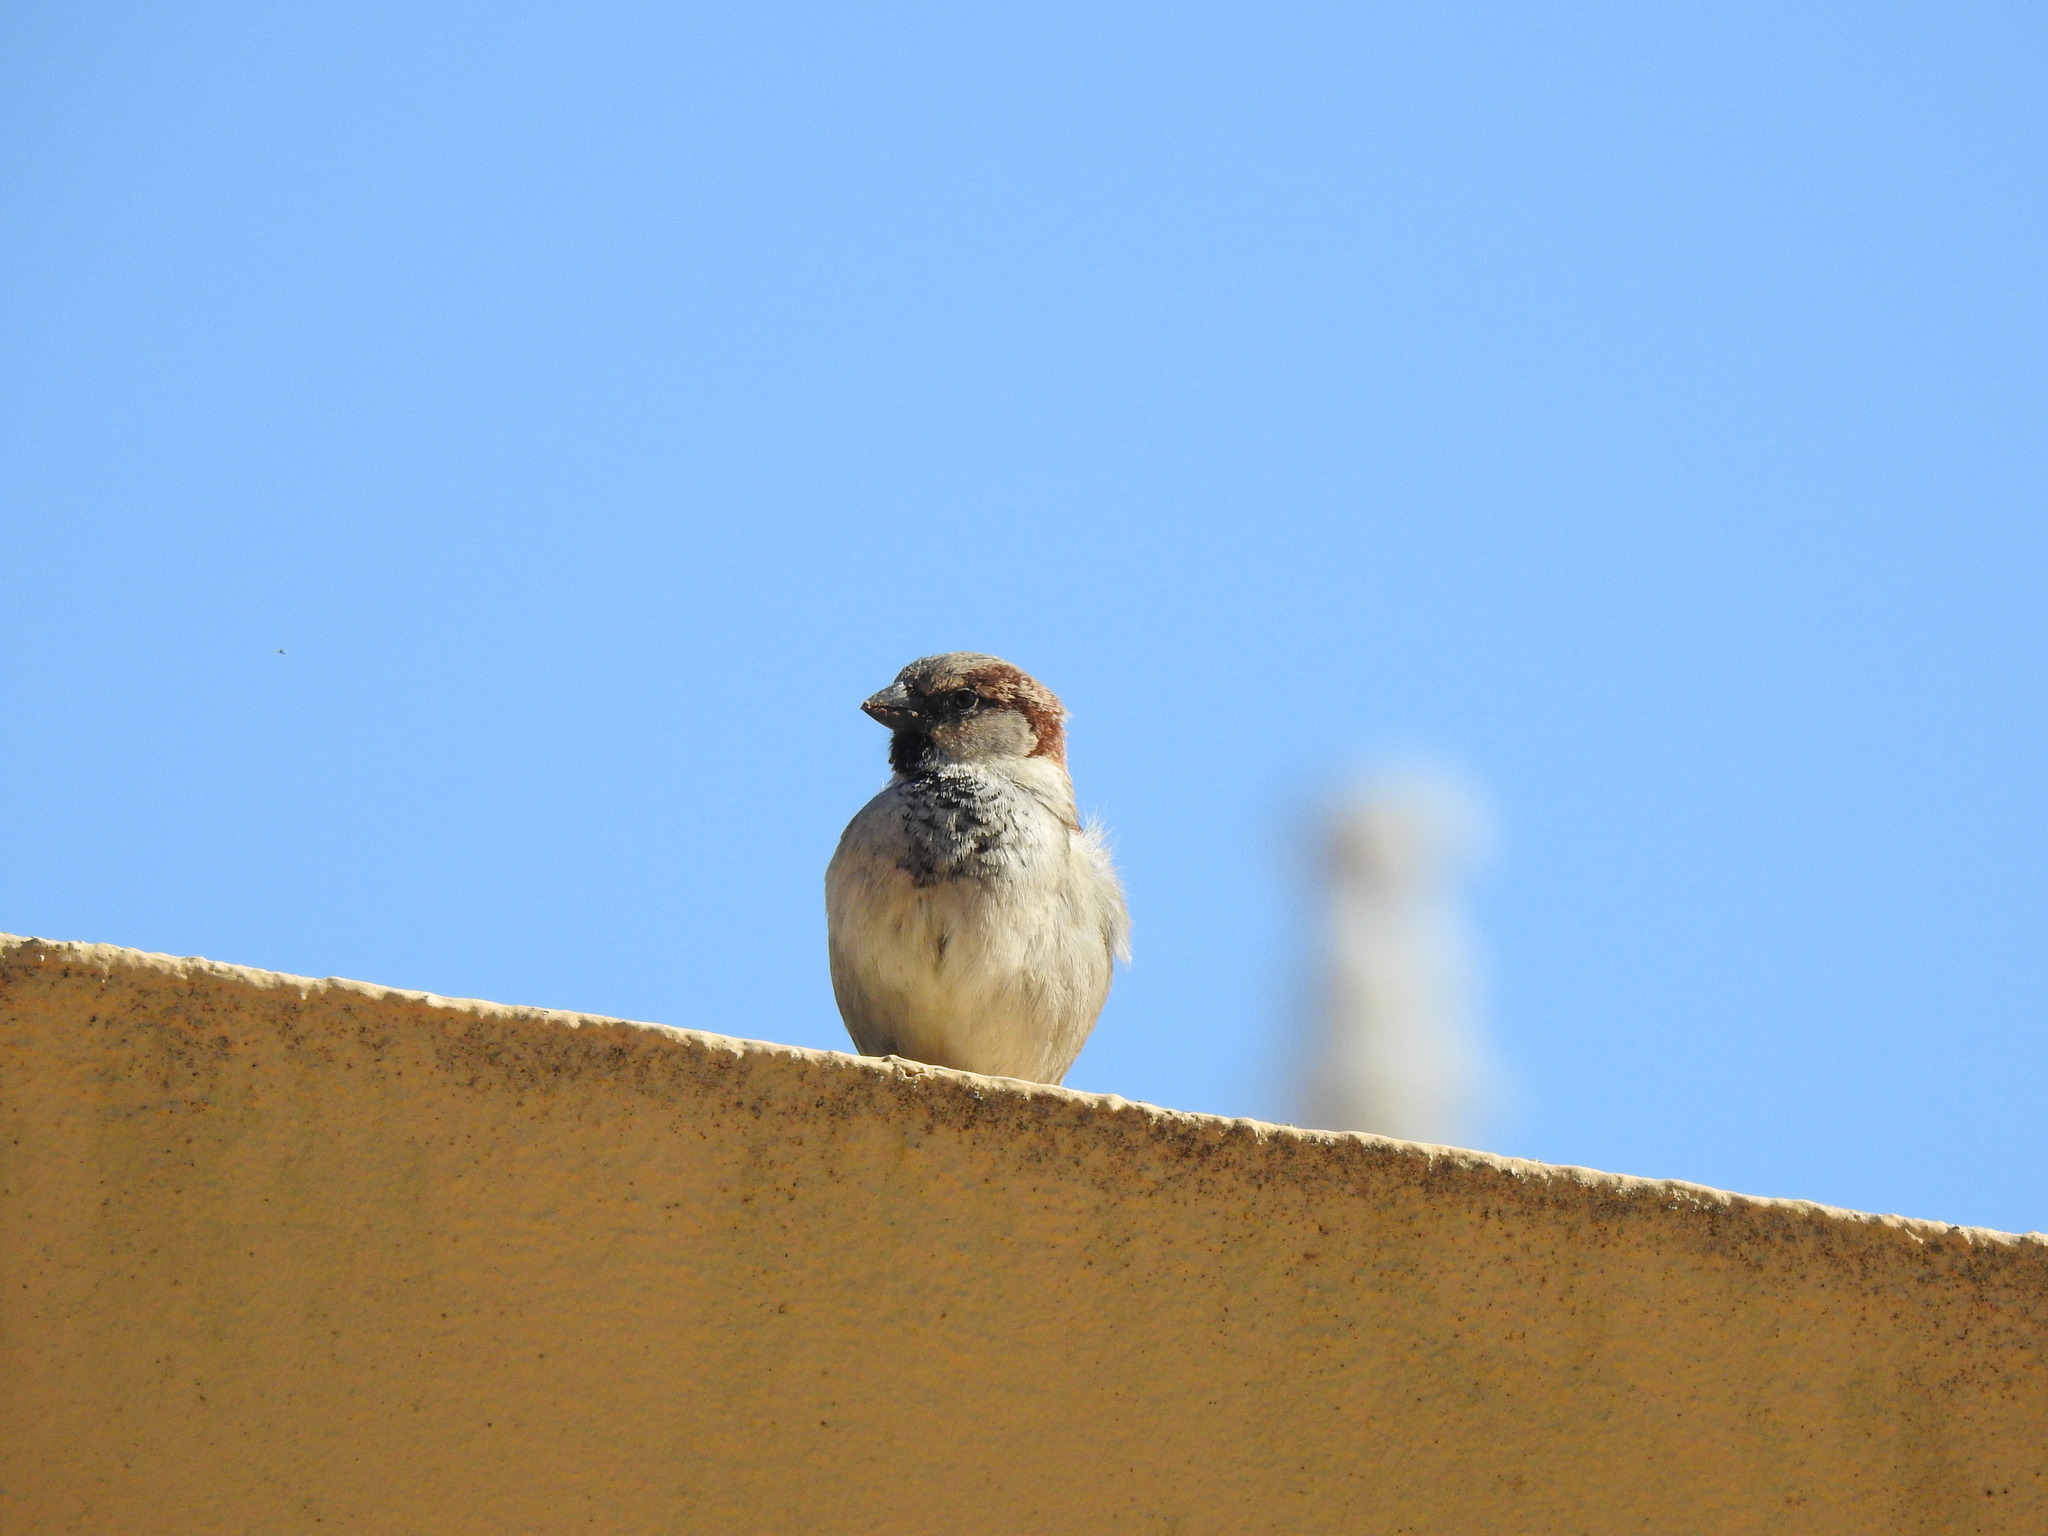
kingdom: Animalia
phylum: Chordata
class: Aves
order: Passeriformes
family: Passeridae
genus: Passer
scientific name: Passer domesticus
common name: House sparrow
